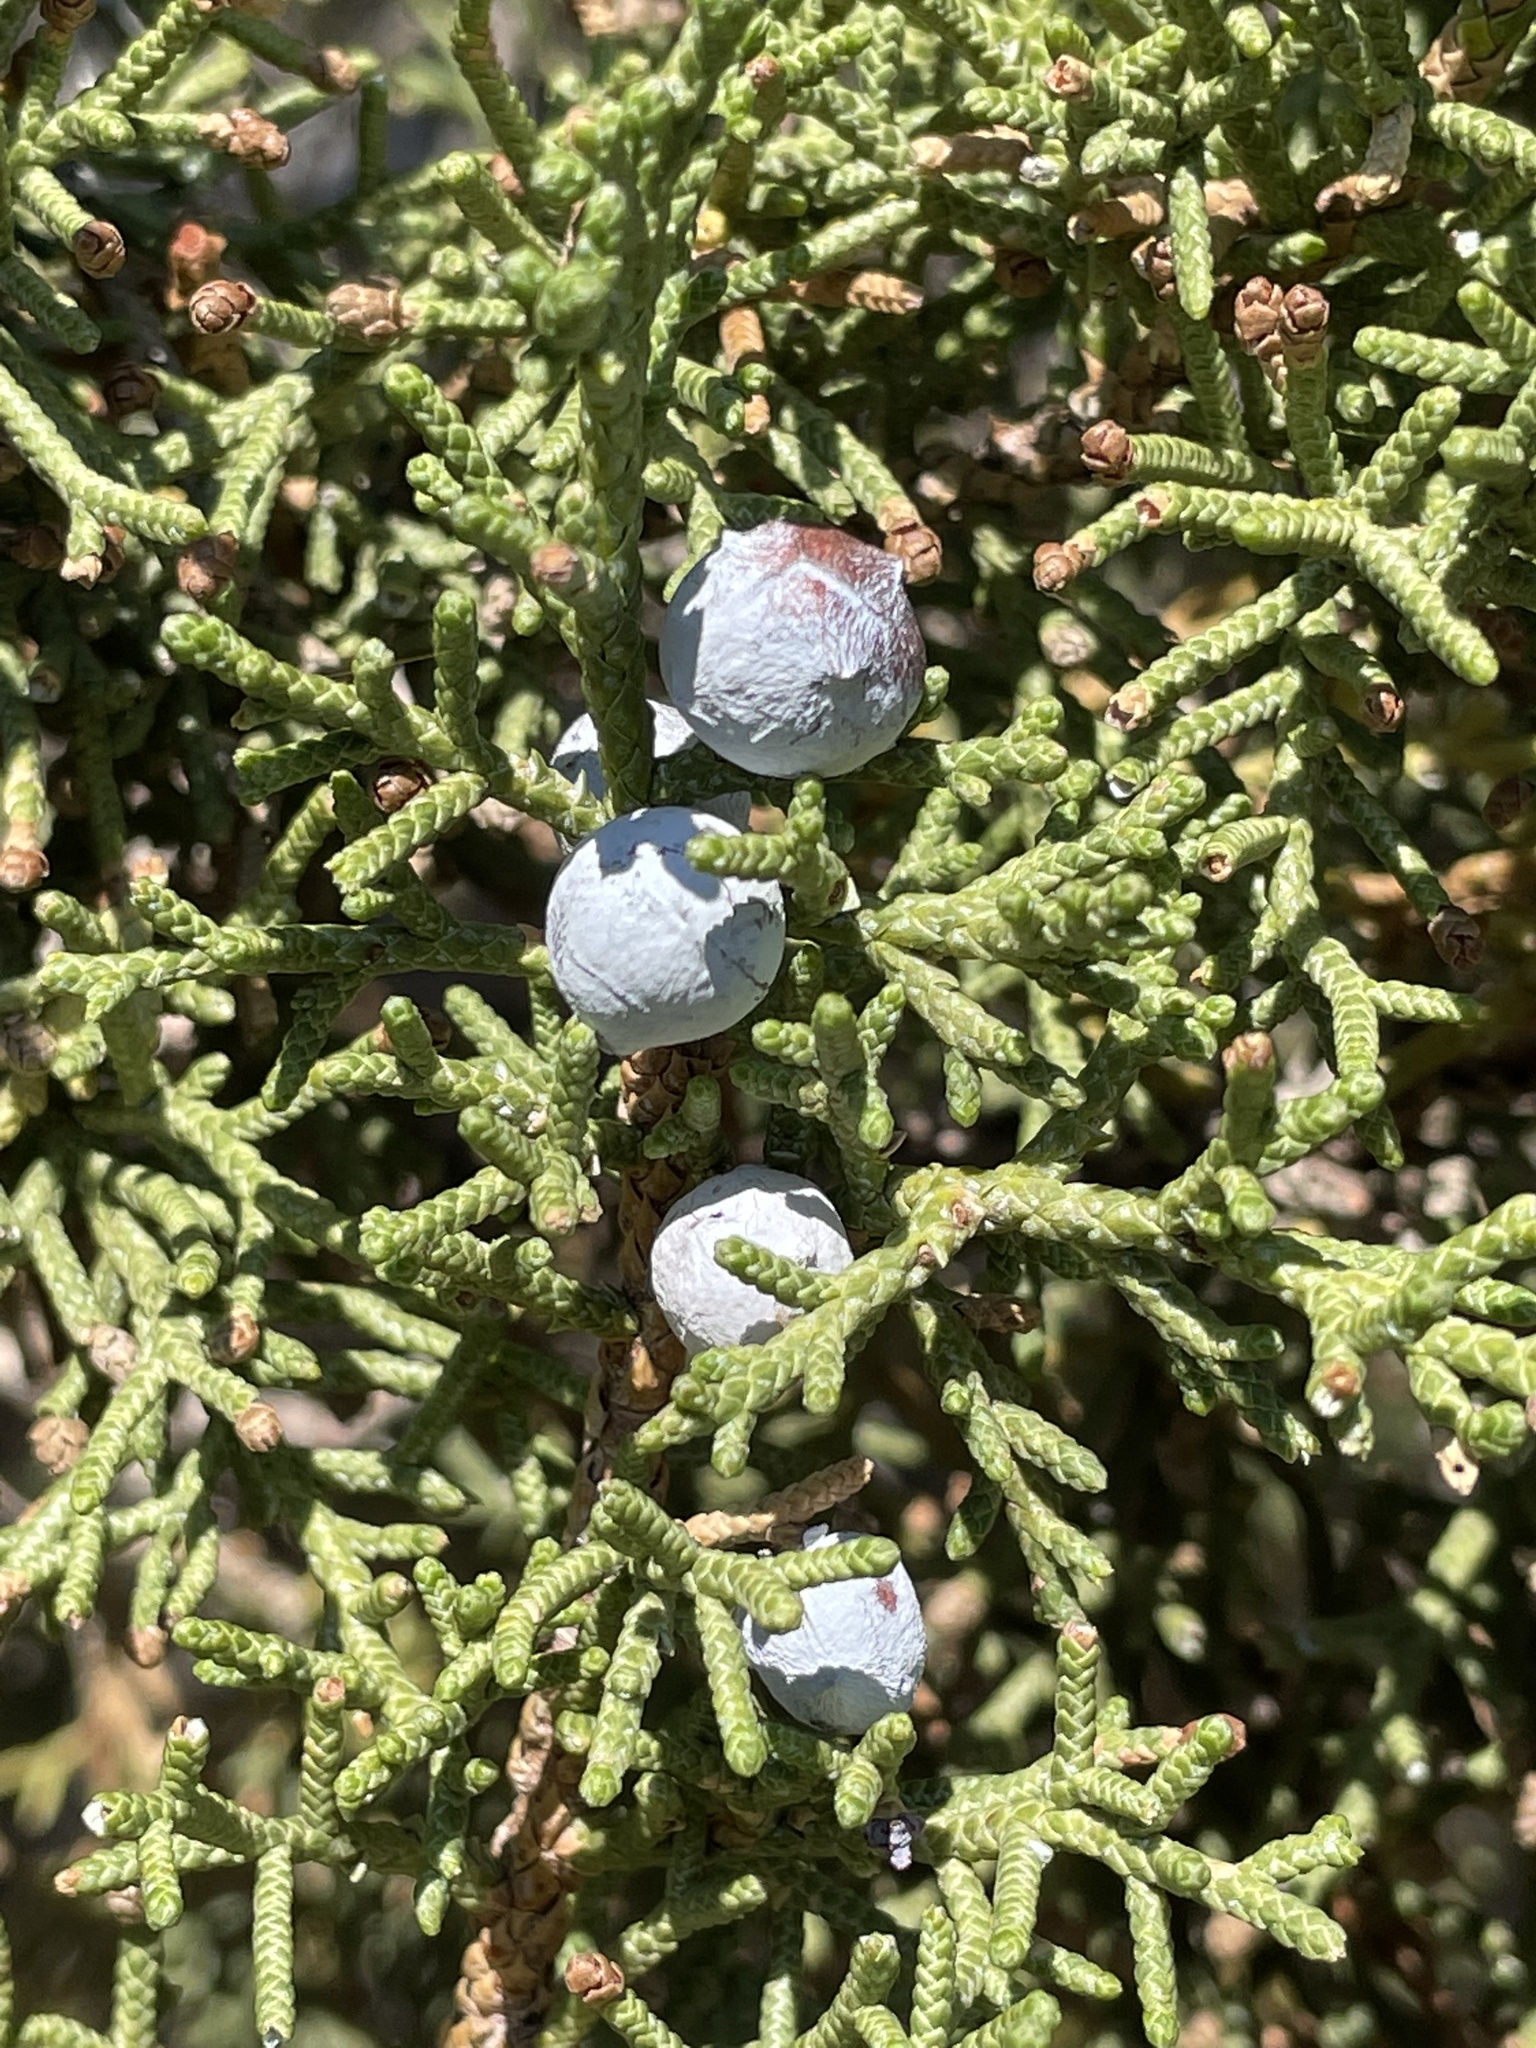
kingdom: Plantae
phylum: Tracheophyta
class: Pinopsida
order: Pinales
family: Cupressaceae
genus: Juniperus
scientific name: Juniperus osteosperma
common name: Utah juniper
